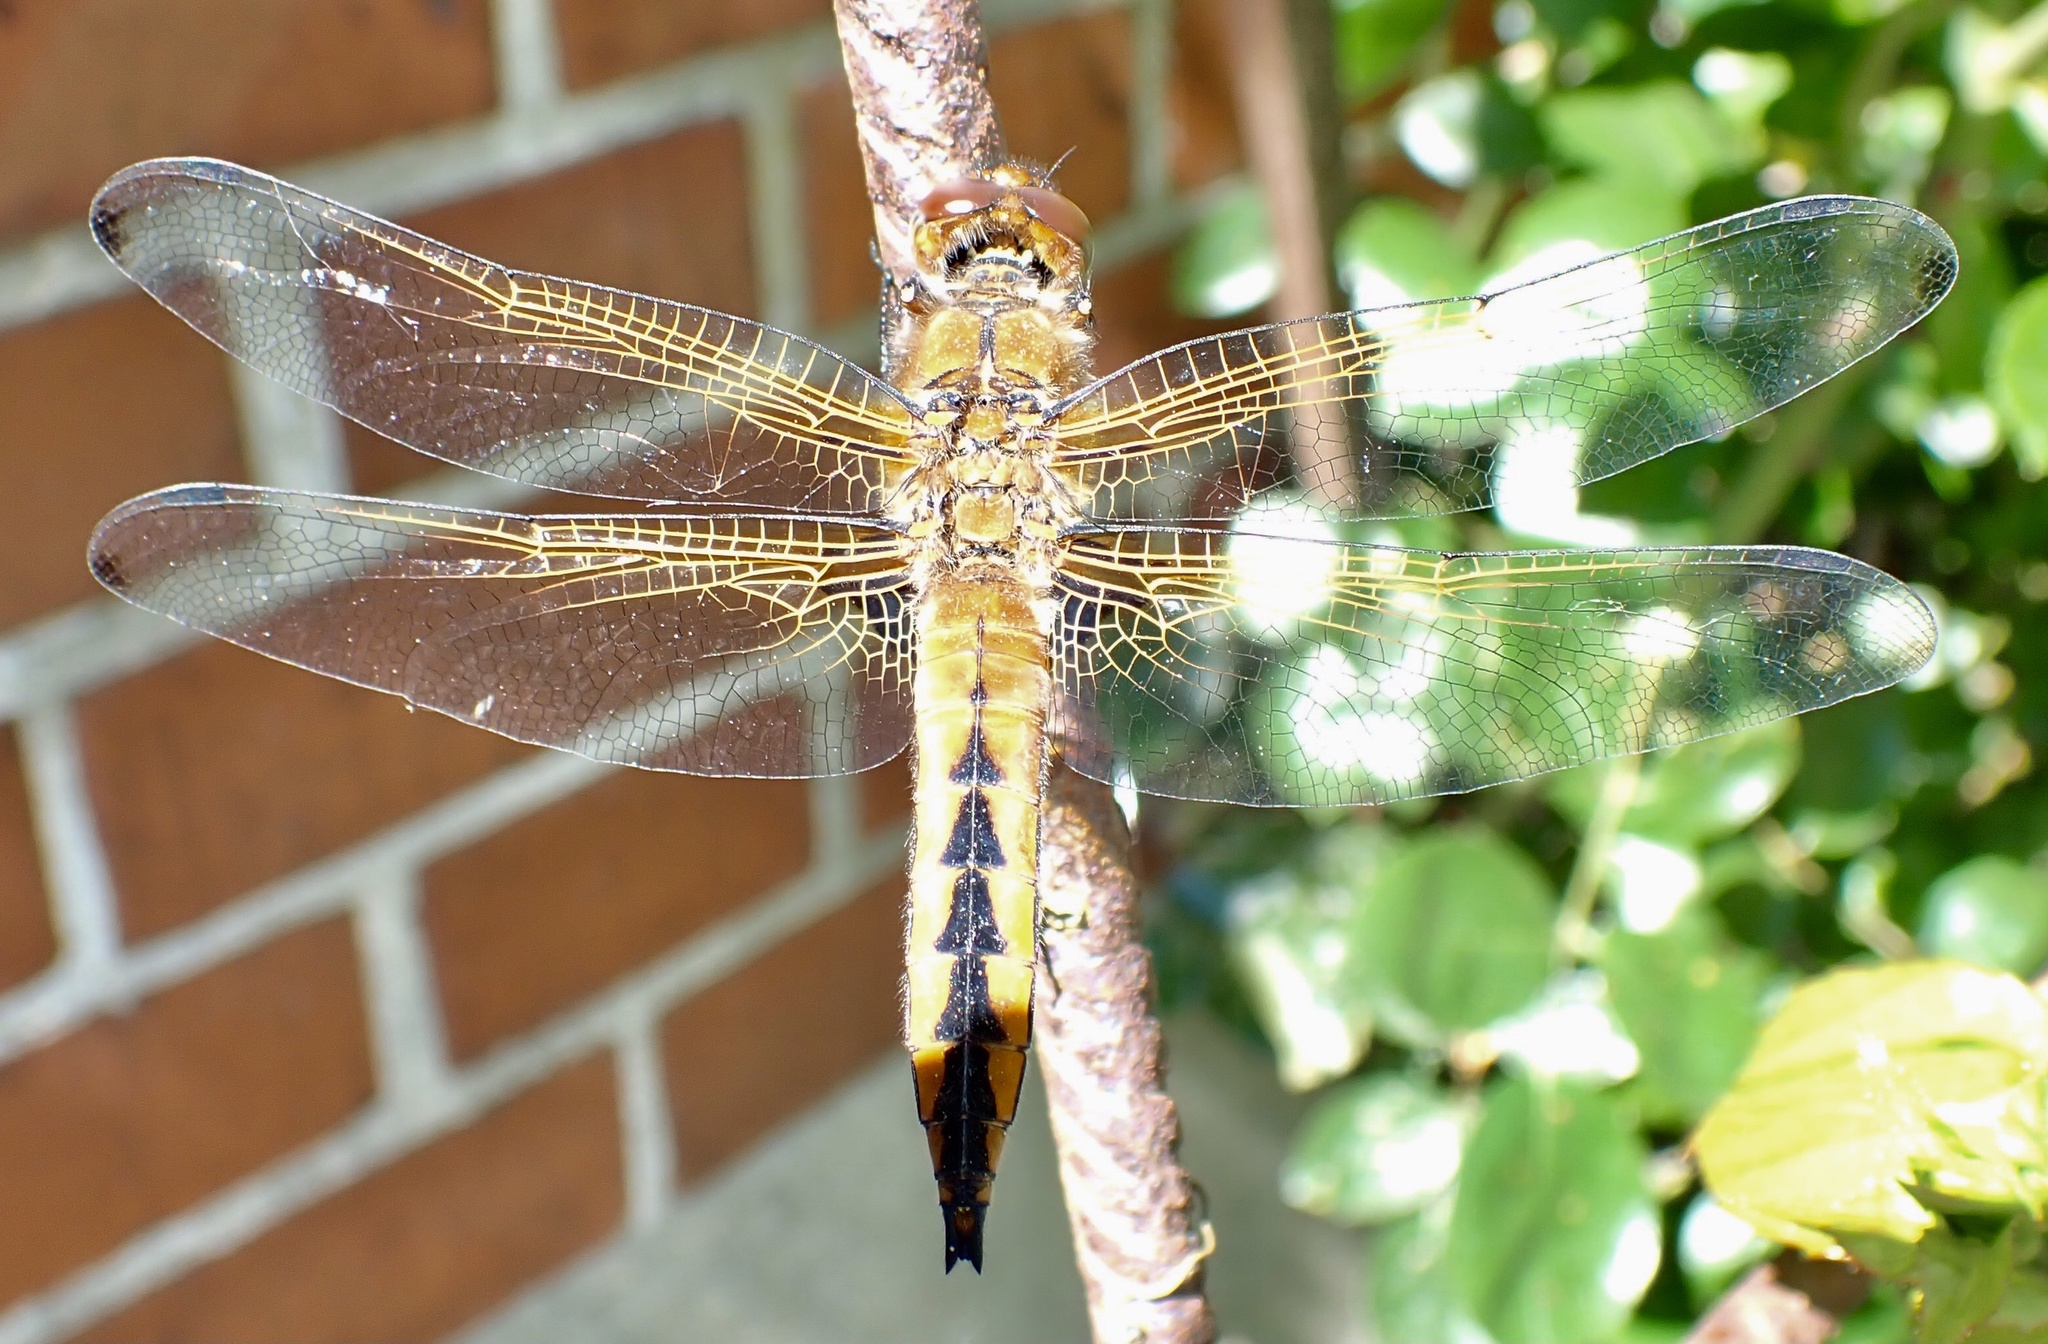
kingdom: Animalia
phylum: Arthropoda
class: Insecta
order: Odonata
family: Libellulidae
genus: Libellula
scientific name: Libellula fulva
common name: Blue chaser
